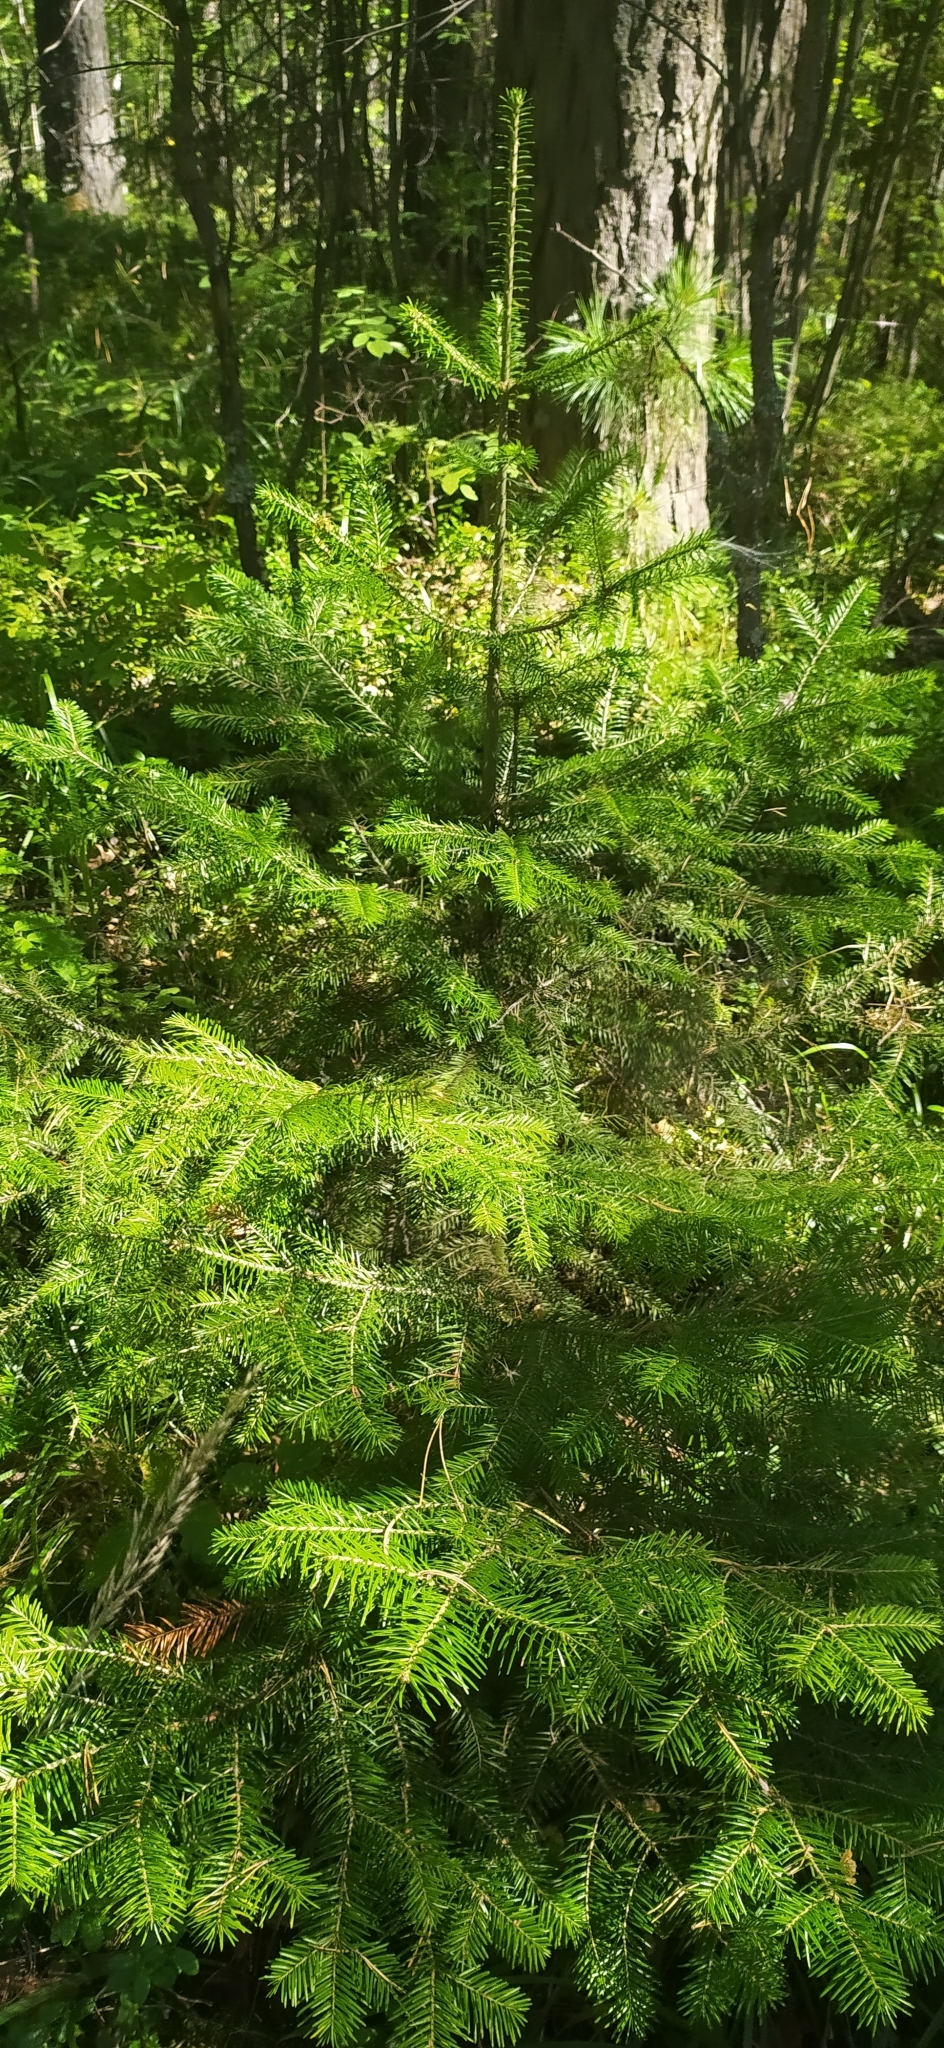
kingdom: Plantae
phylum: Tracheophyta
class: Pinopsida
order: Pinales
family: Pinaceae
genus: Abies
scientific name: Abies sibirica
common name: Siberian fir
